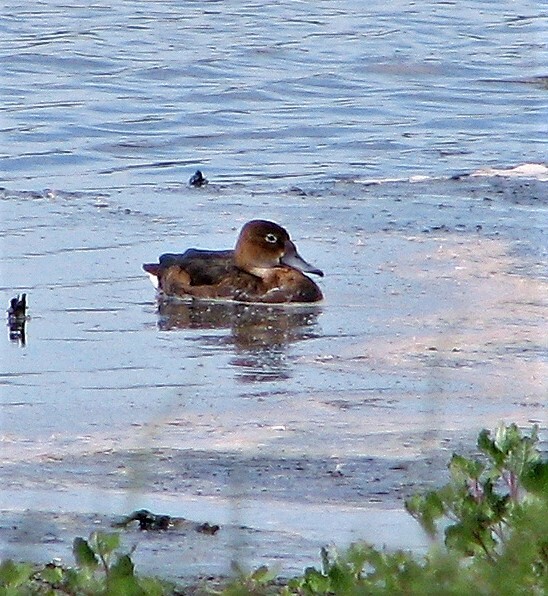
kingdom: Animalia
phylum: Chordata
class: Aves
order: Anseriformes
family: Anatidae
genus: Netta
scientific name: Netta peposaca
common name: Rosy-billed pochard
